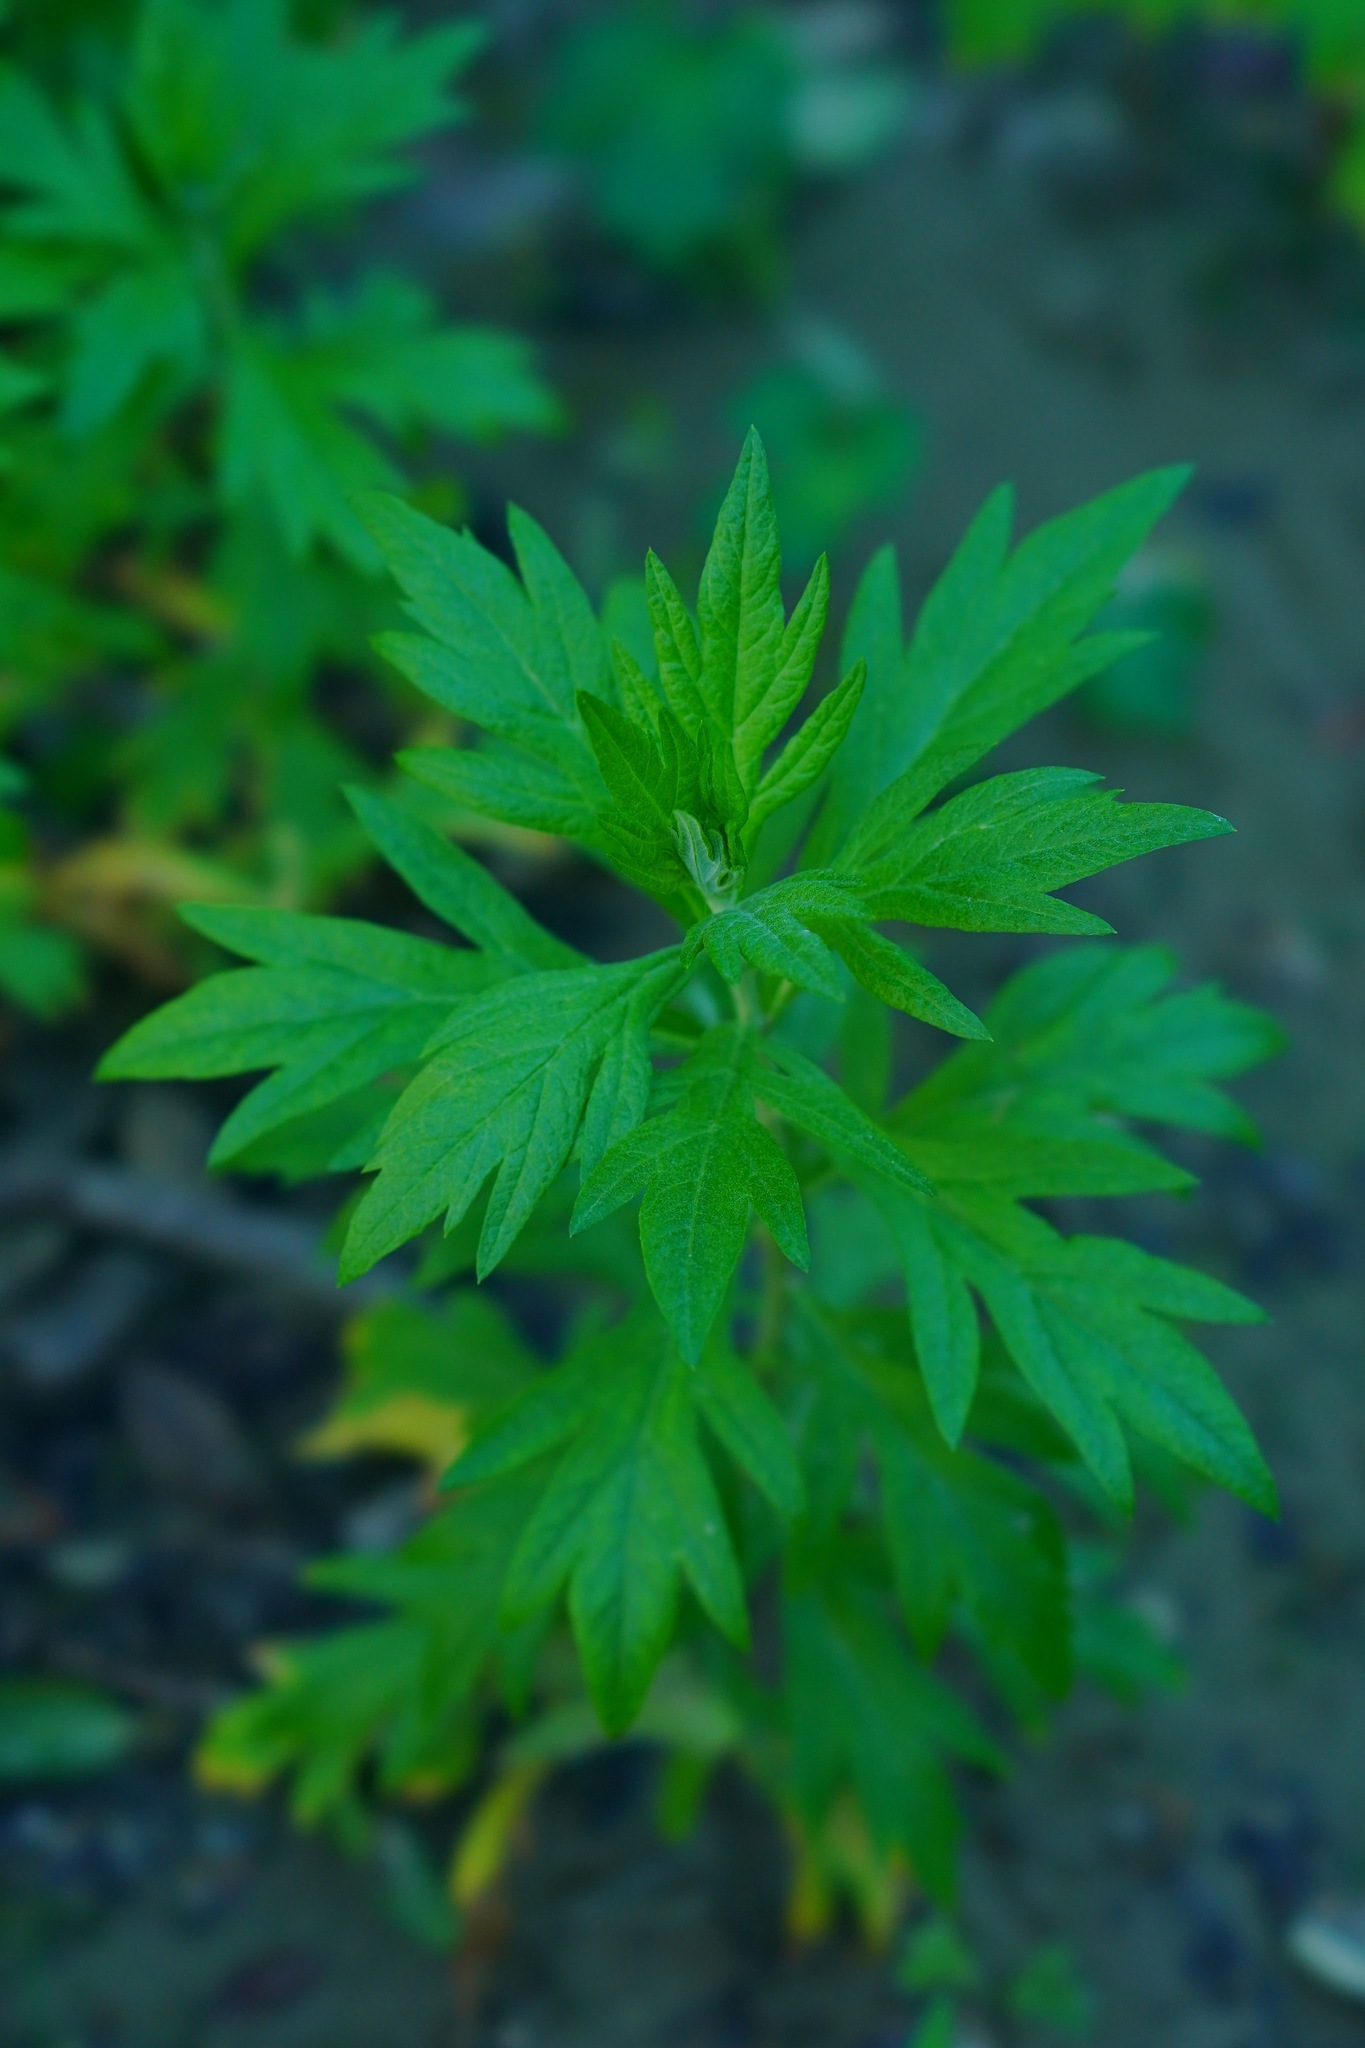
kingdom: Plantae
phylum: Tracheophyta
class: Magnoliopsida
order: Asterales
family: Asteraceae
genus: Artemisia
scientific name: Artemisia douglasiana
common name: Northwest mugwort
